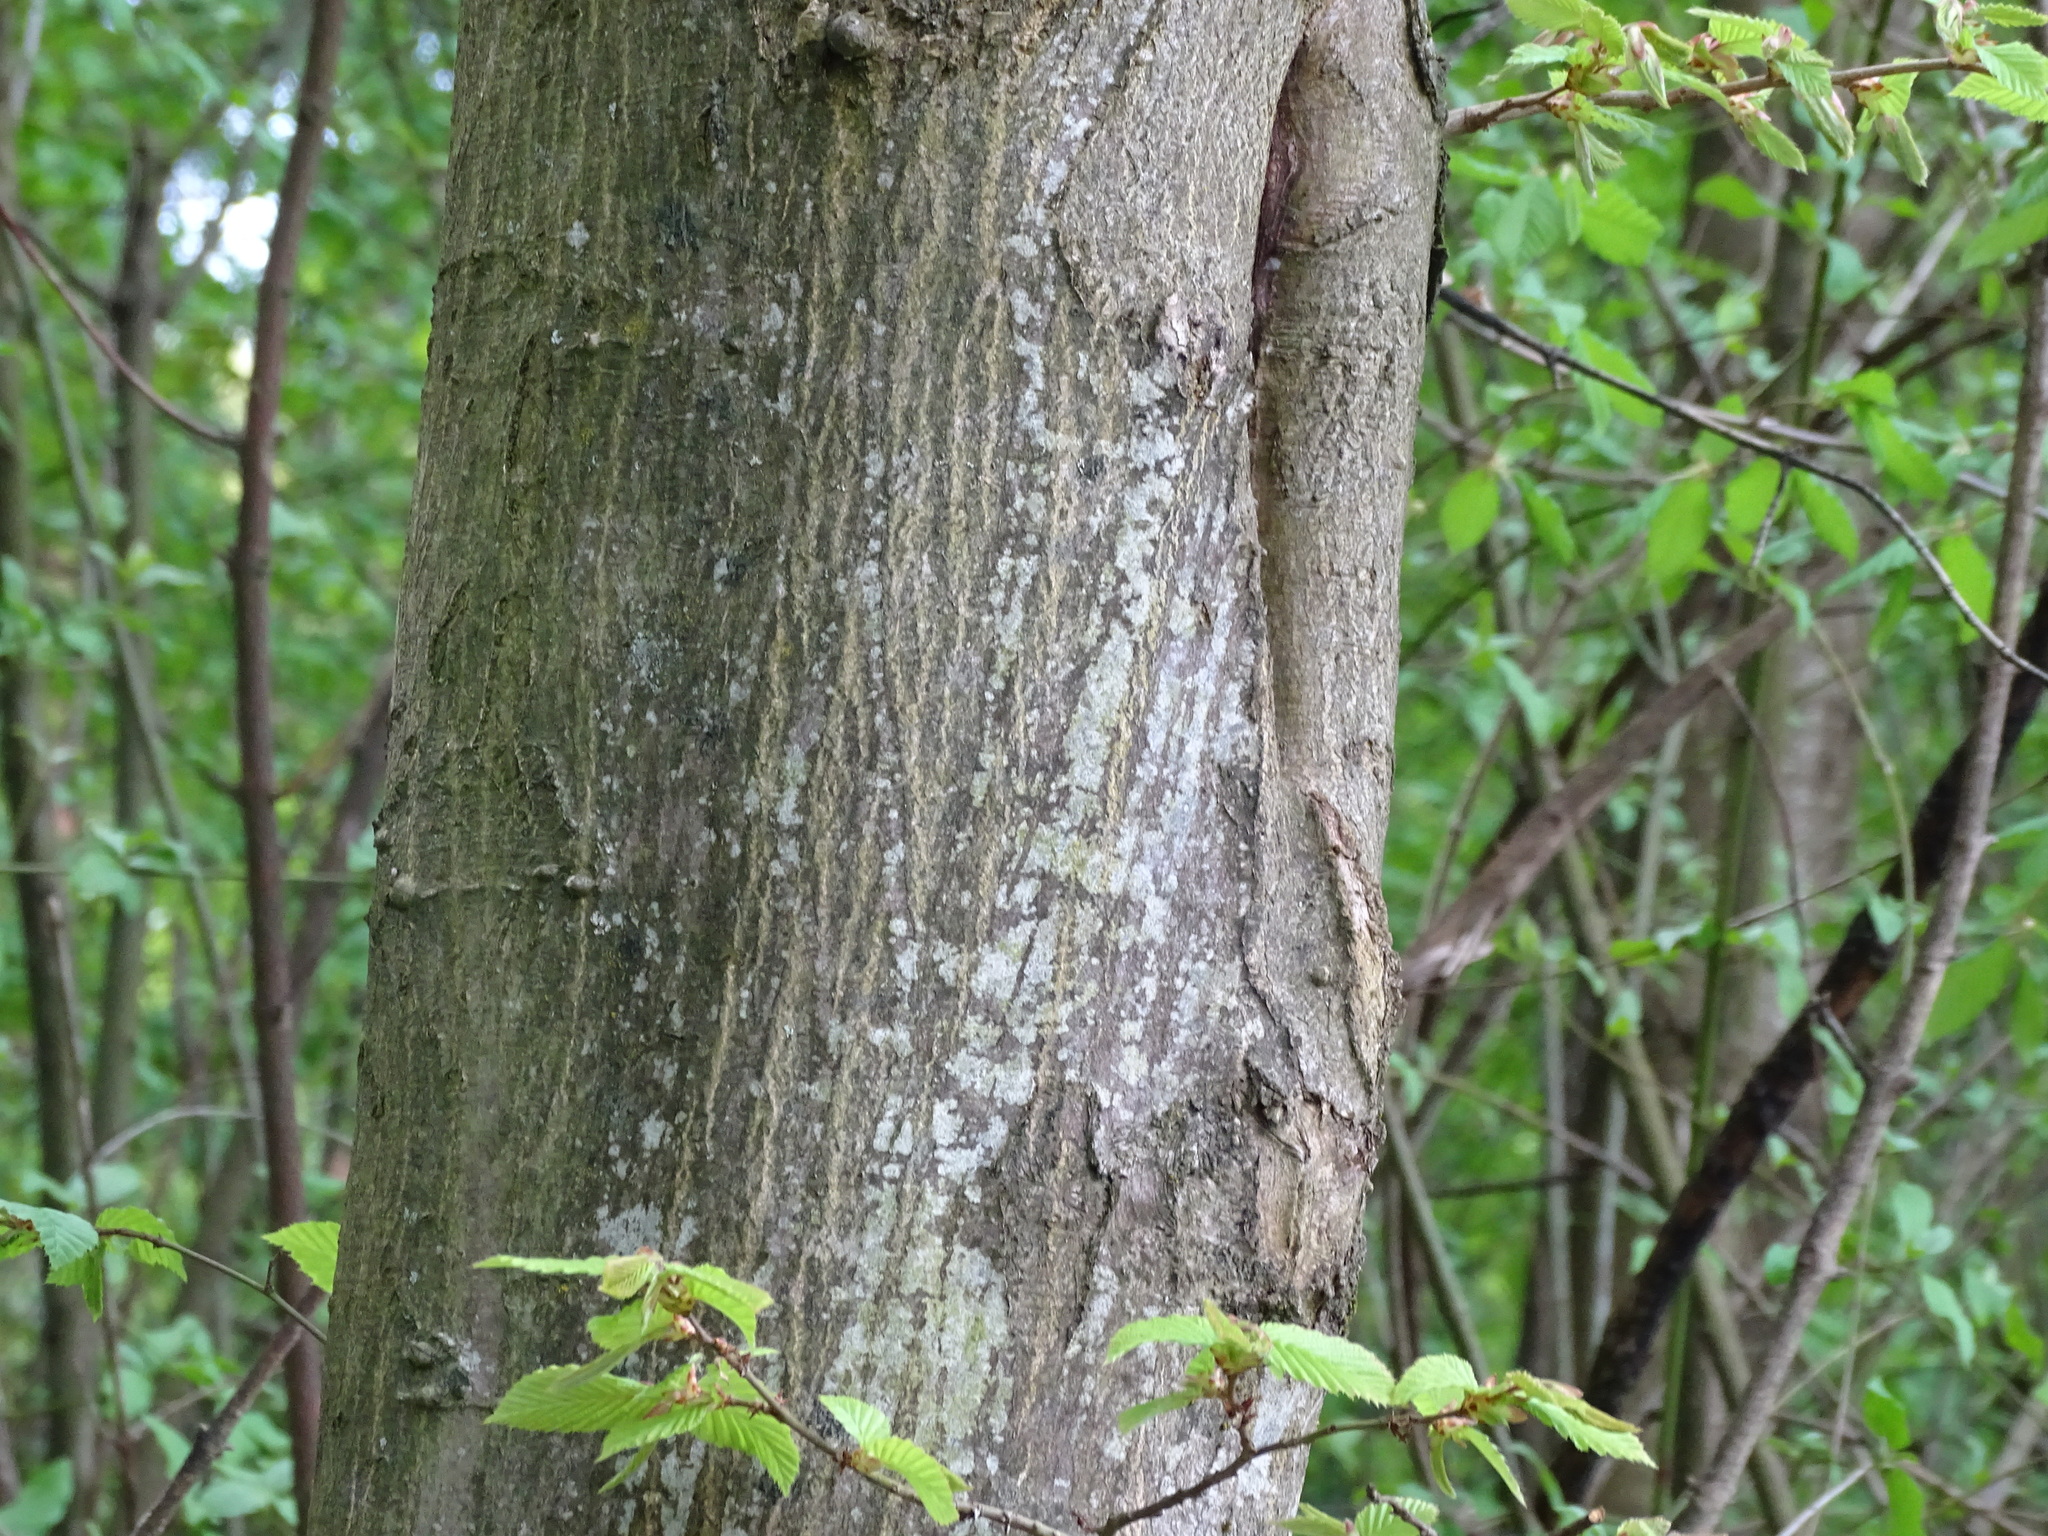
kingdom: Plantae
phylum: Tracheophyta
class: Magnoliopsida
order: Fagales
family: Betulaceae
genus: Carpinus
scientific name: Carpinus betulus
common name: Hornbeam
